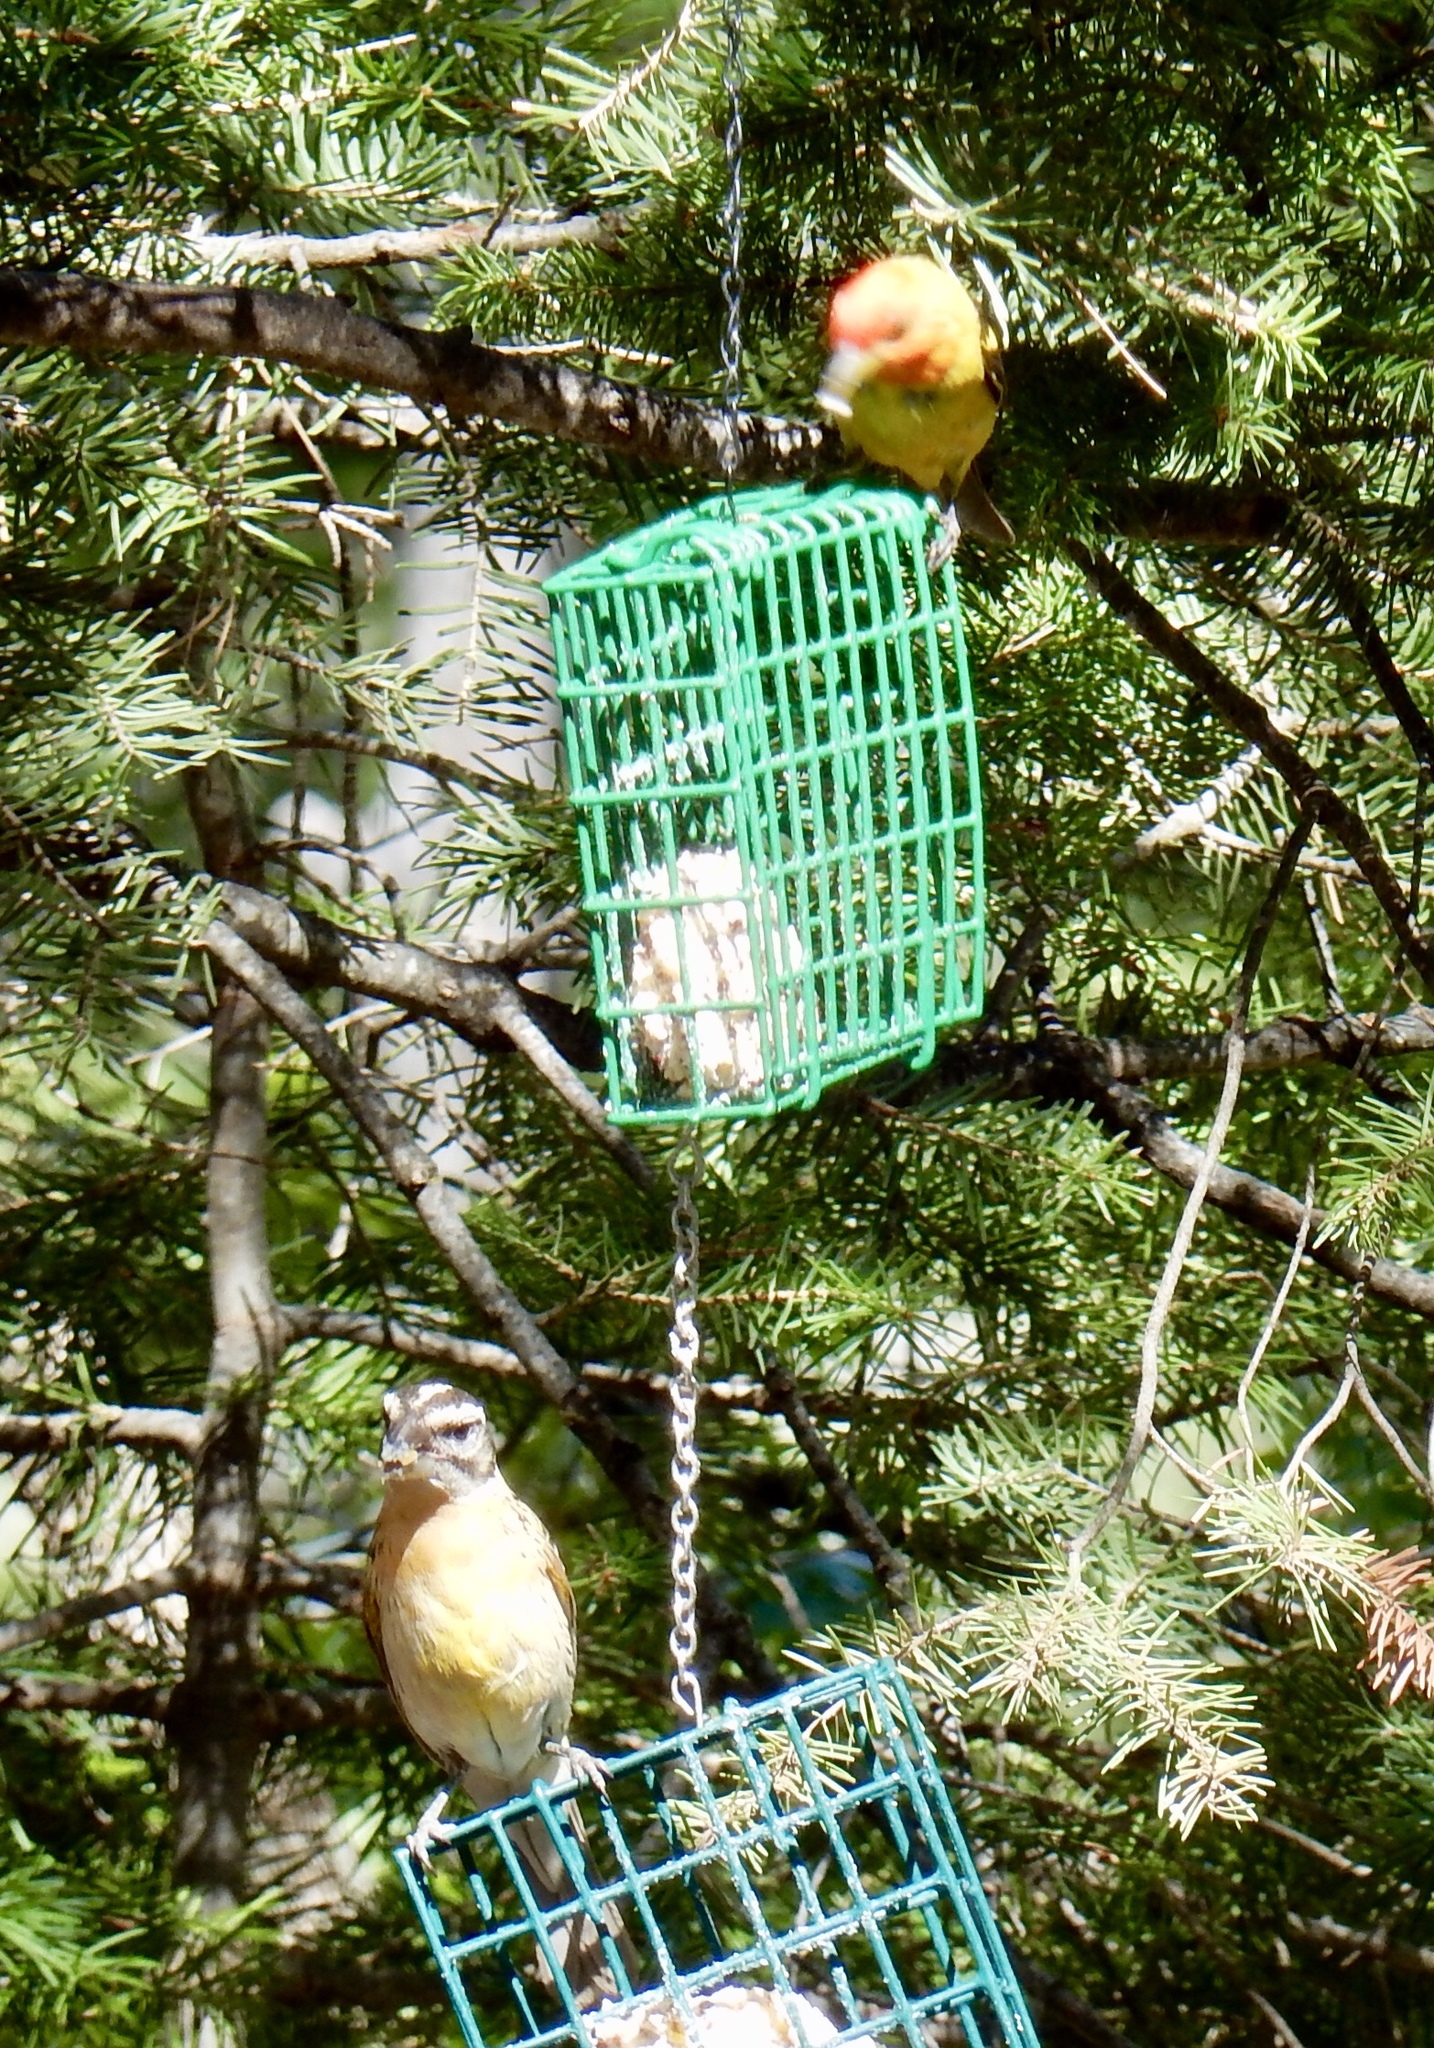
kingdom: Animalia
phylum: Chordata
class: Aves
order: Passeriformes
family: Cardinalidae
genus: Piranga
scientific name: Piranga ludoviciana
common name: Western tanager
